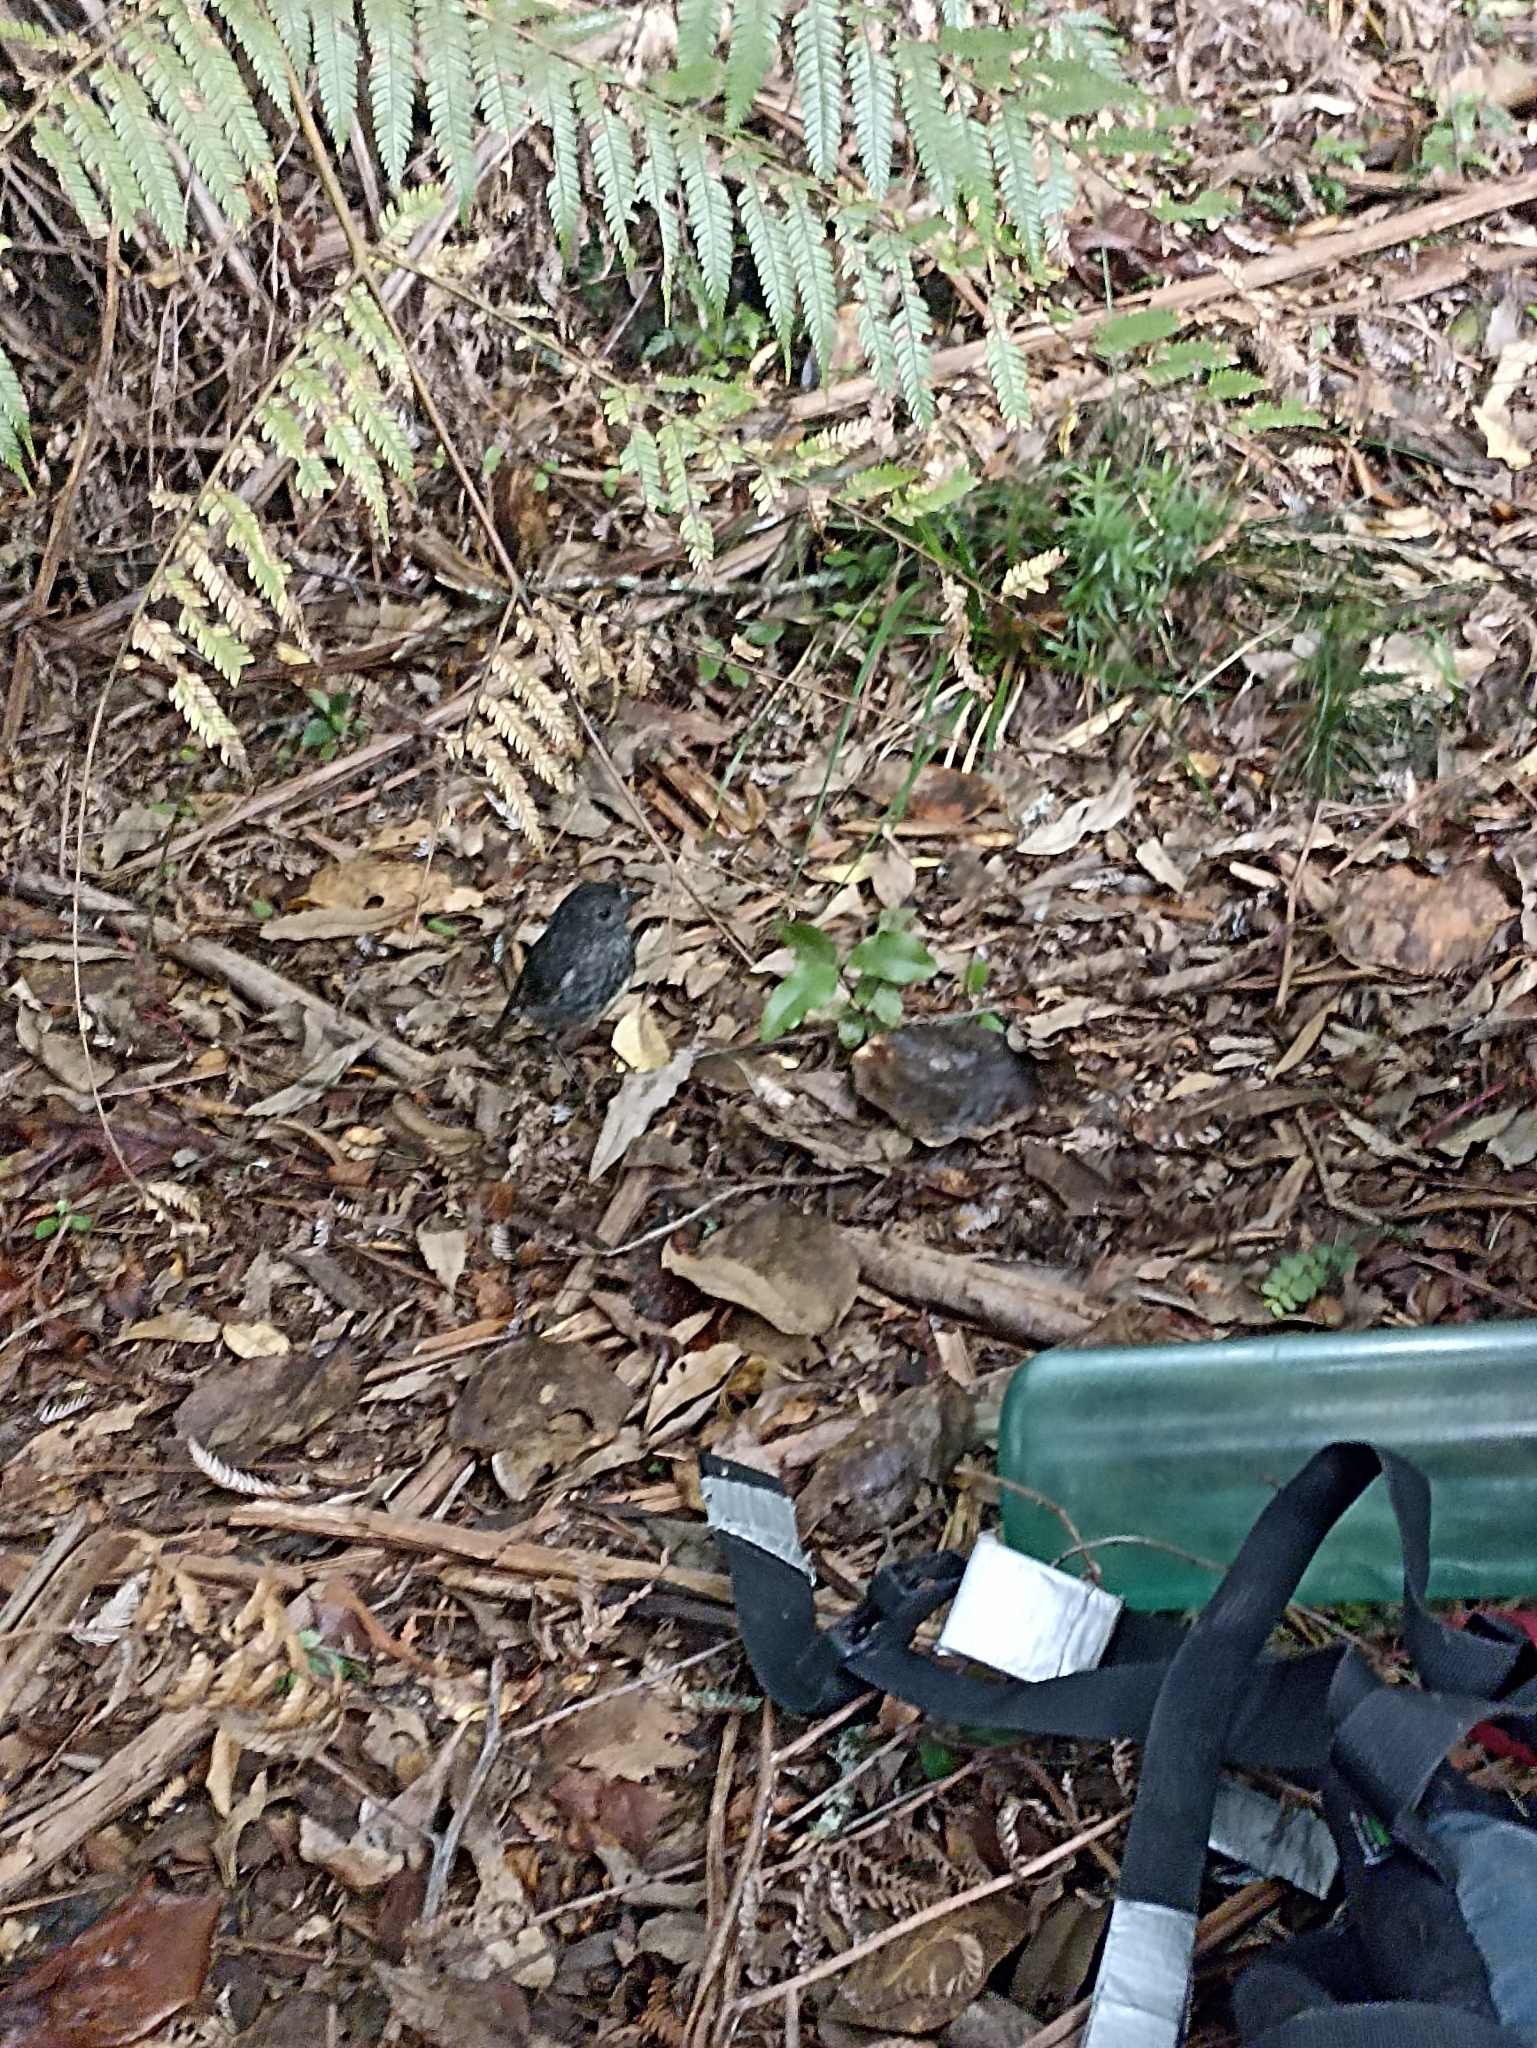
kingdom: Animalia
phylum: Chordata
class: Aves
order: Passeriformes
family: Petroicidae
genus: Petroica
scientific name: Petroica australis
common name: New zealand robin
